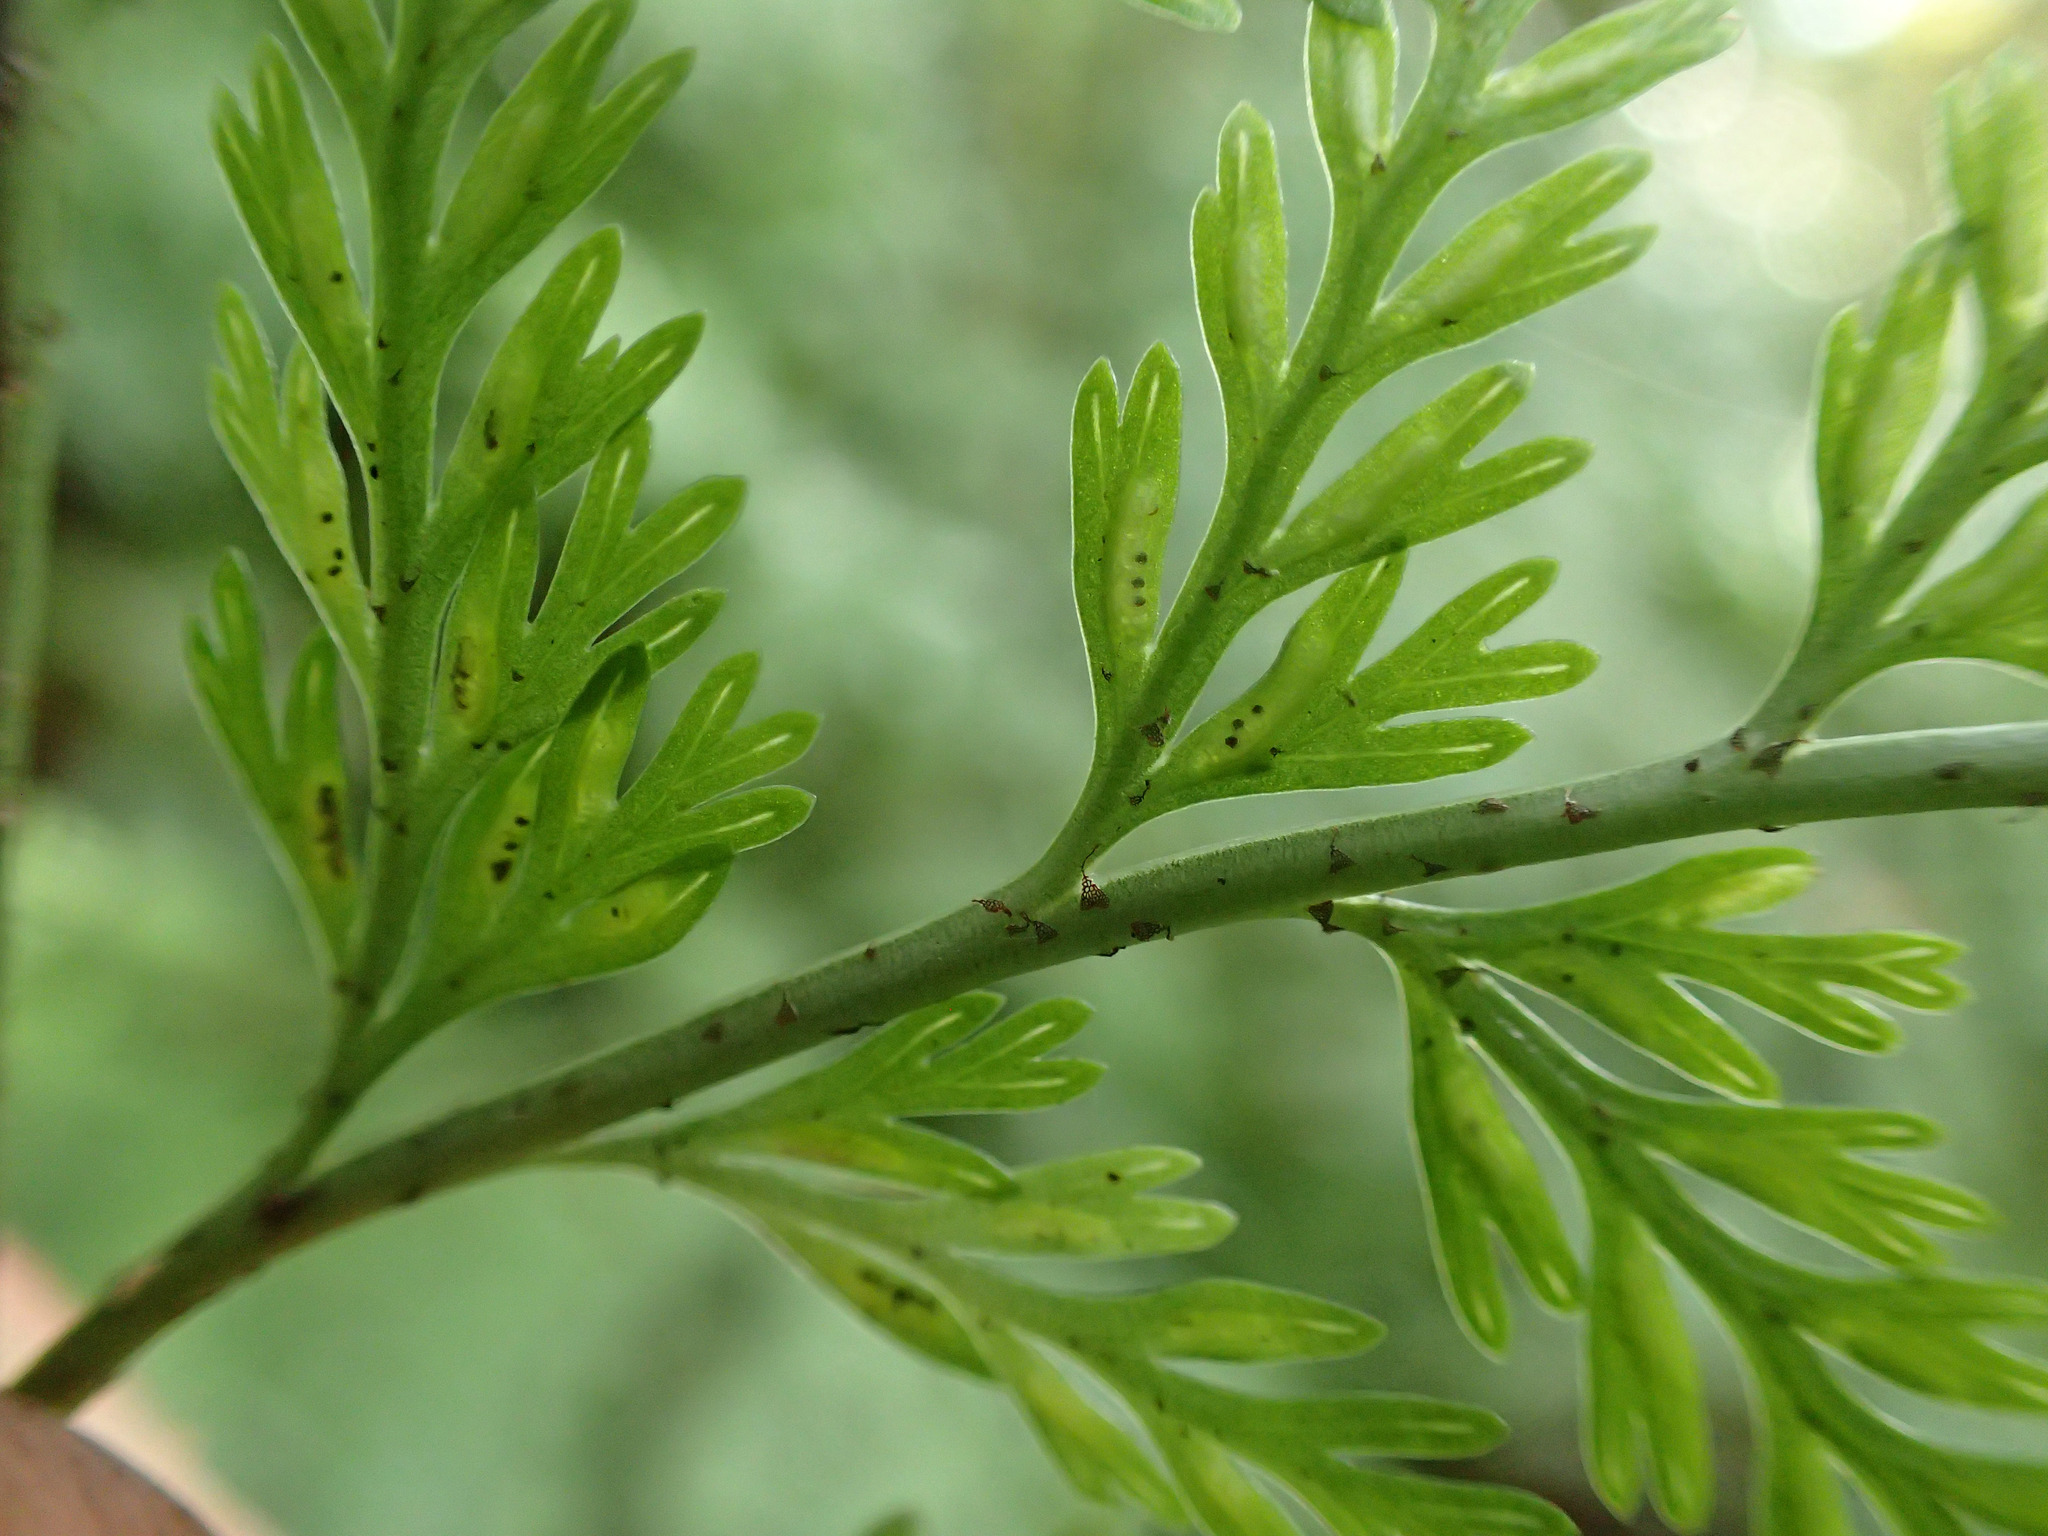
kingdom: Plantae
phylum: Tracheophyta
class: Polypodiopsida
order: Polypodiales
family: Aspleniaceae
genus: Asplenium
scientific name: Asplenium
